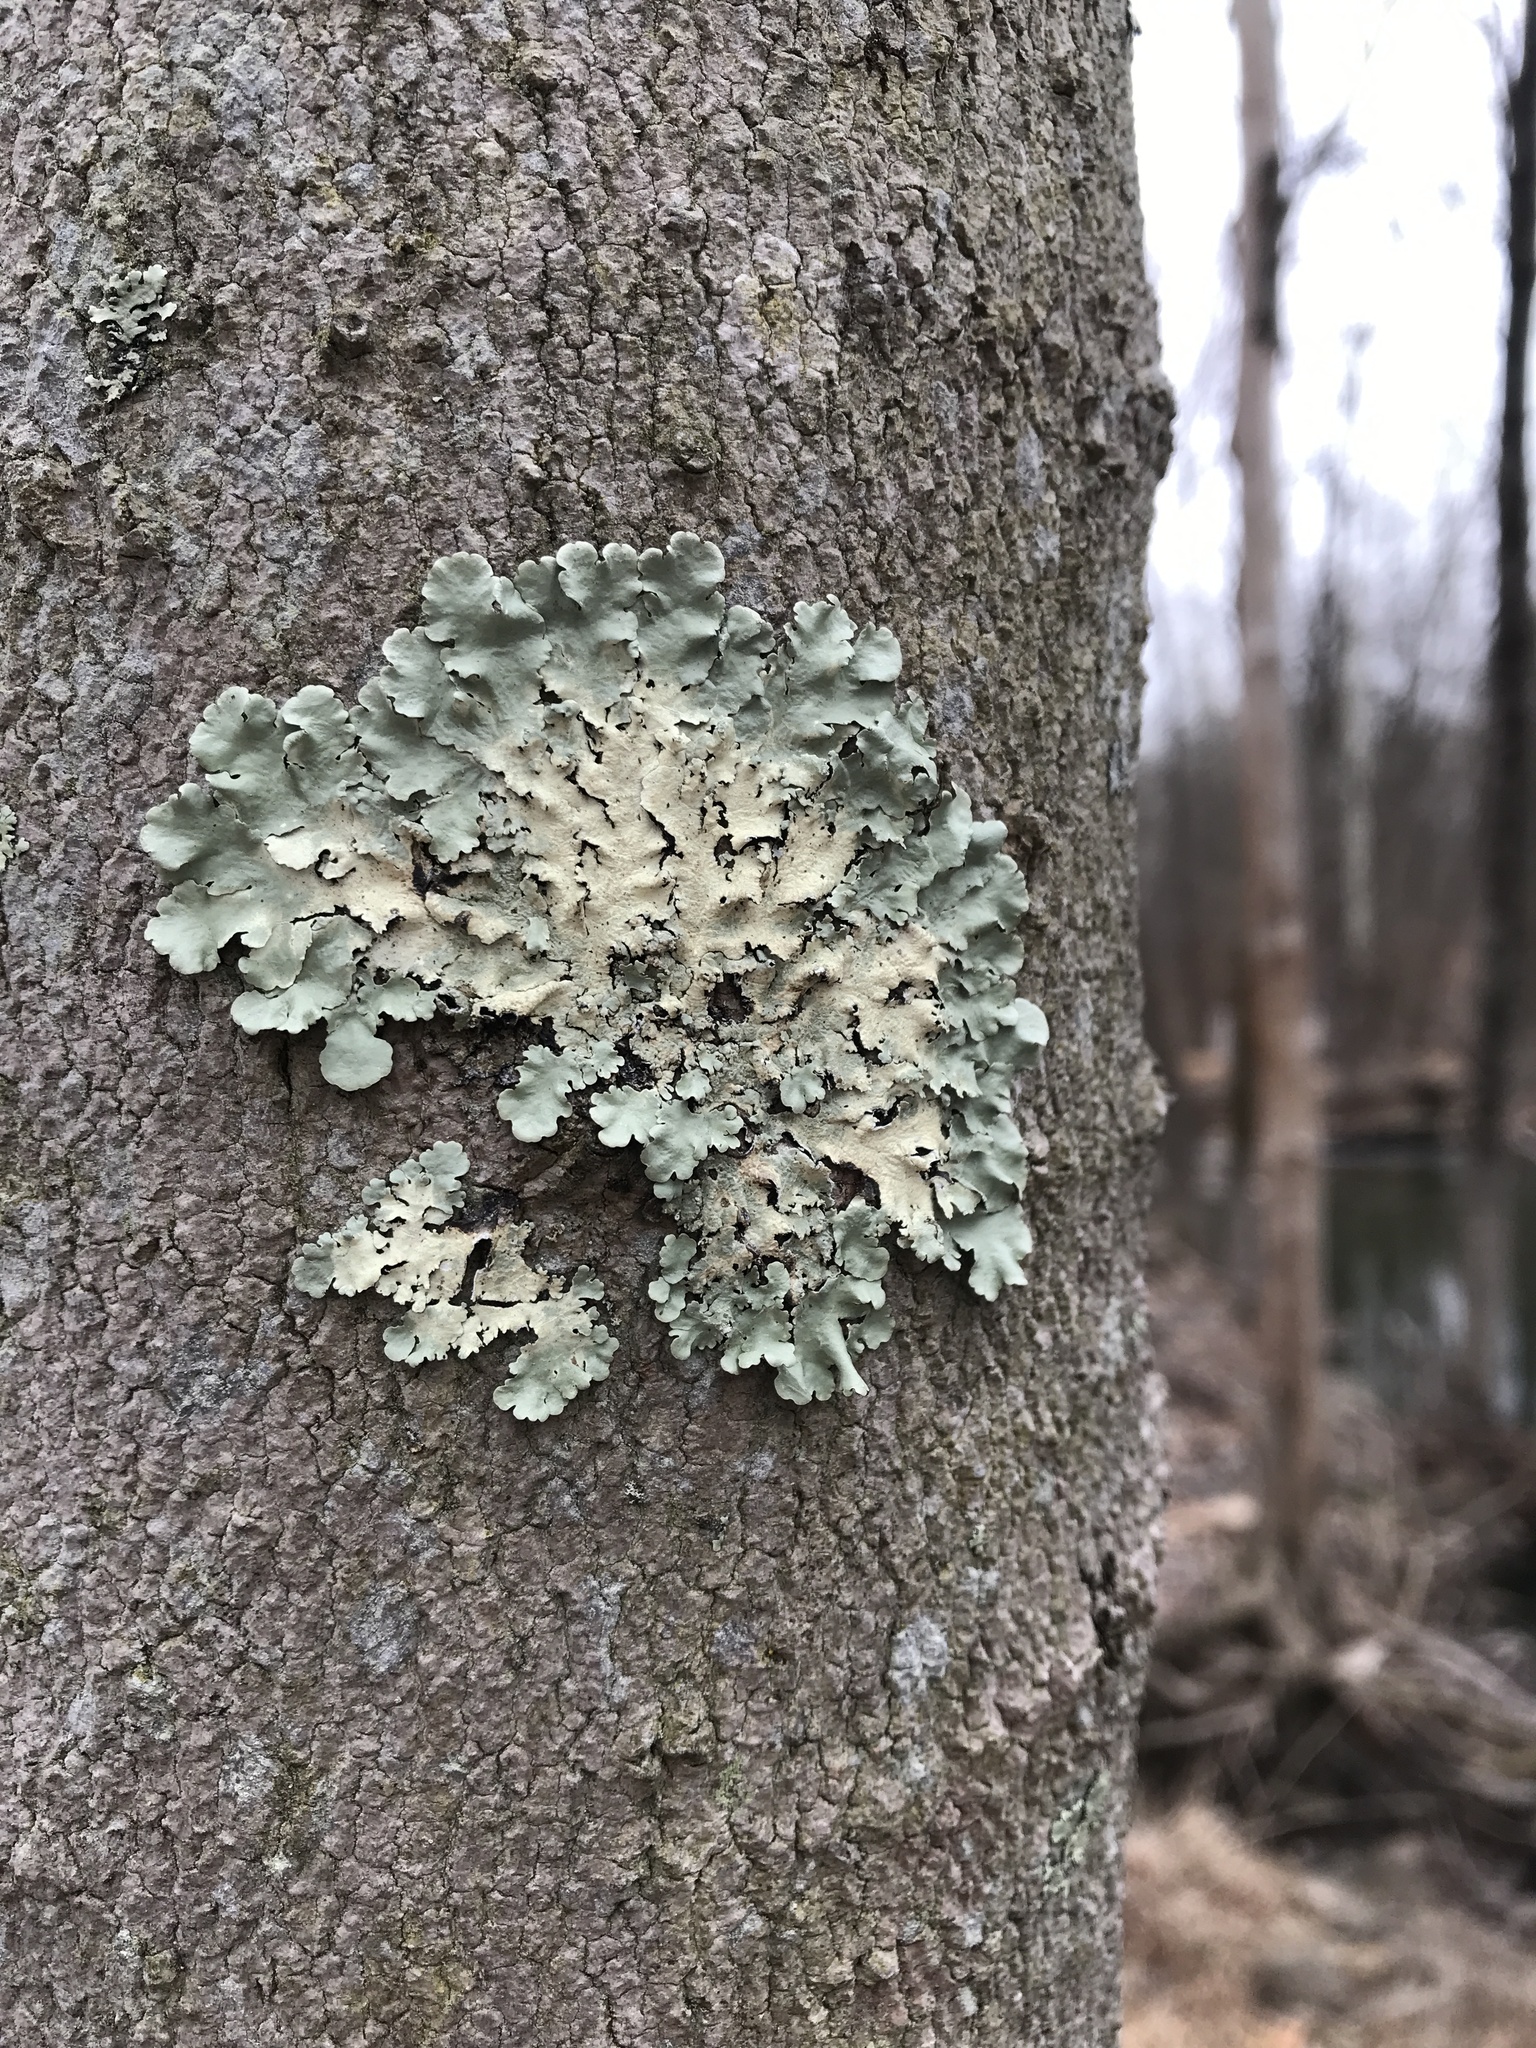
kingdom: Fungi
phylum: Ascomycota
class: Lecanoromycetes
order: Lecanorales
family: Parmeliaceae
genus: Flavoparmelia
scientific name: Flavoparmelia caperata
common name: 40-mile per hour lichen
